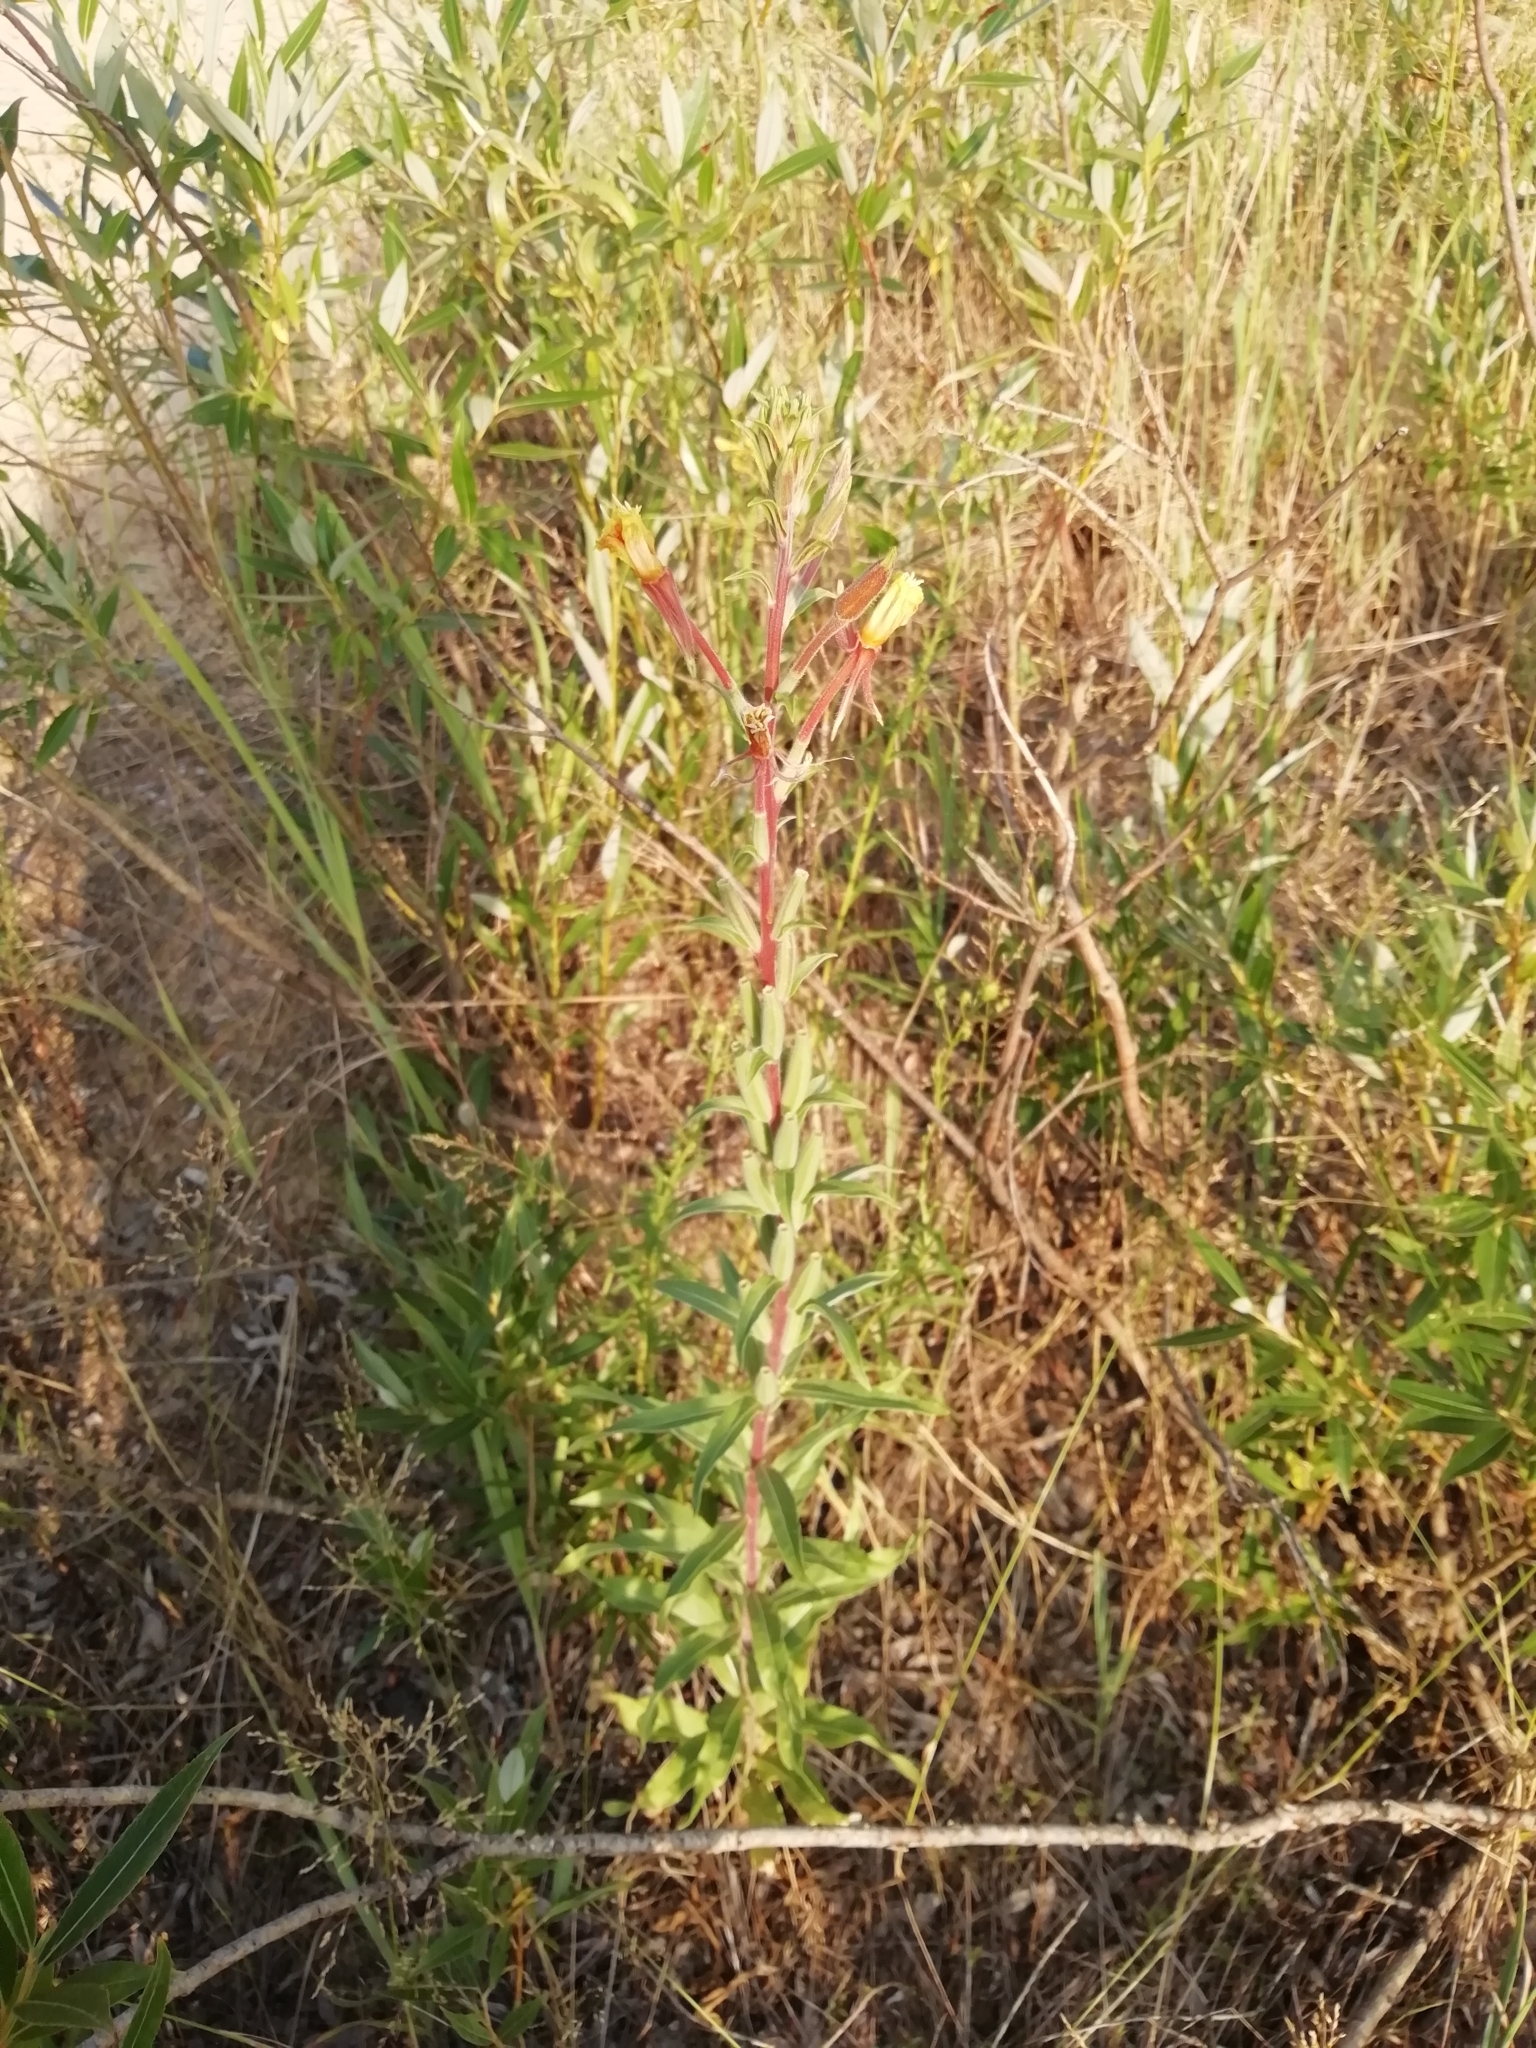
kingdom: Plantae
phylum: Tracheophyta
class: Magnoliopsida
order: Myrtales
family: Onagraceae
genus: Oenothera
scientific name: Oenothera coloratissima
